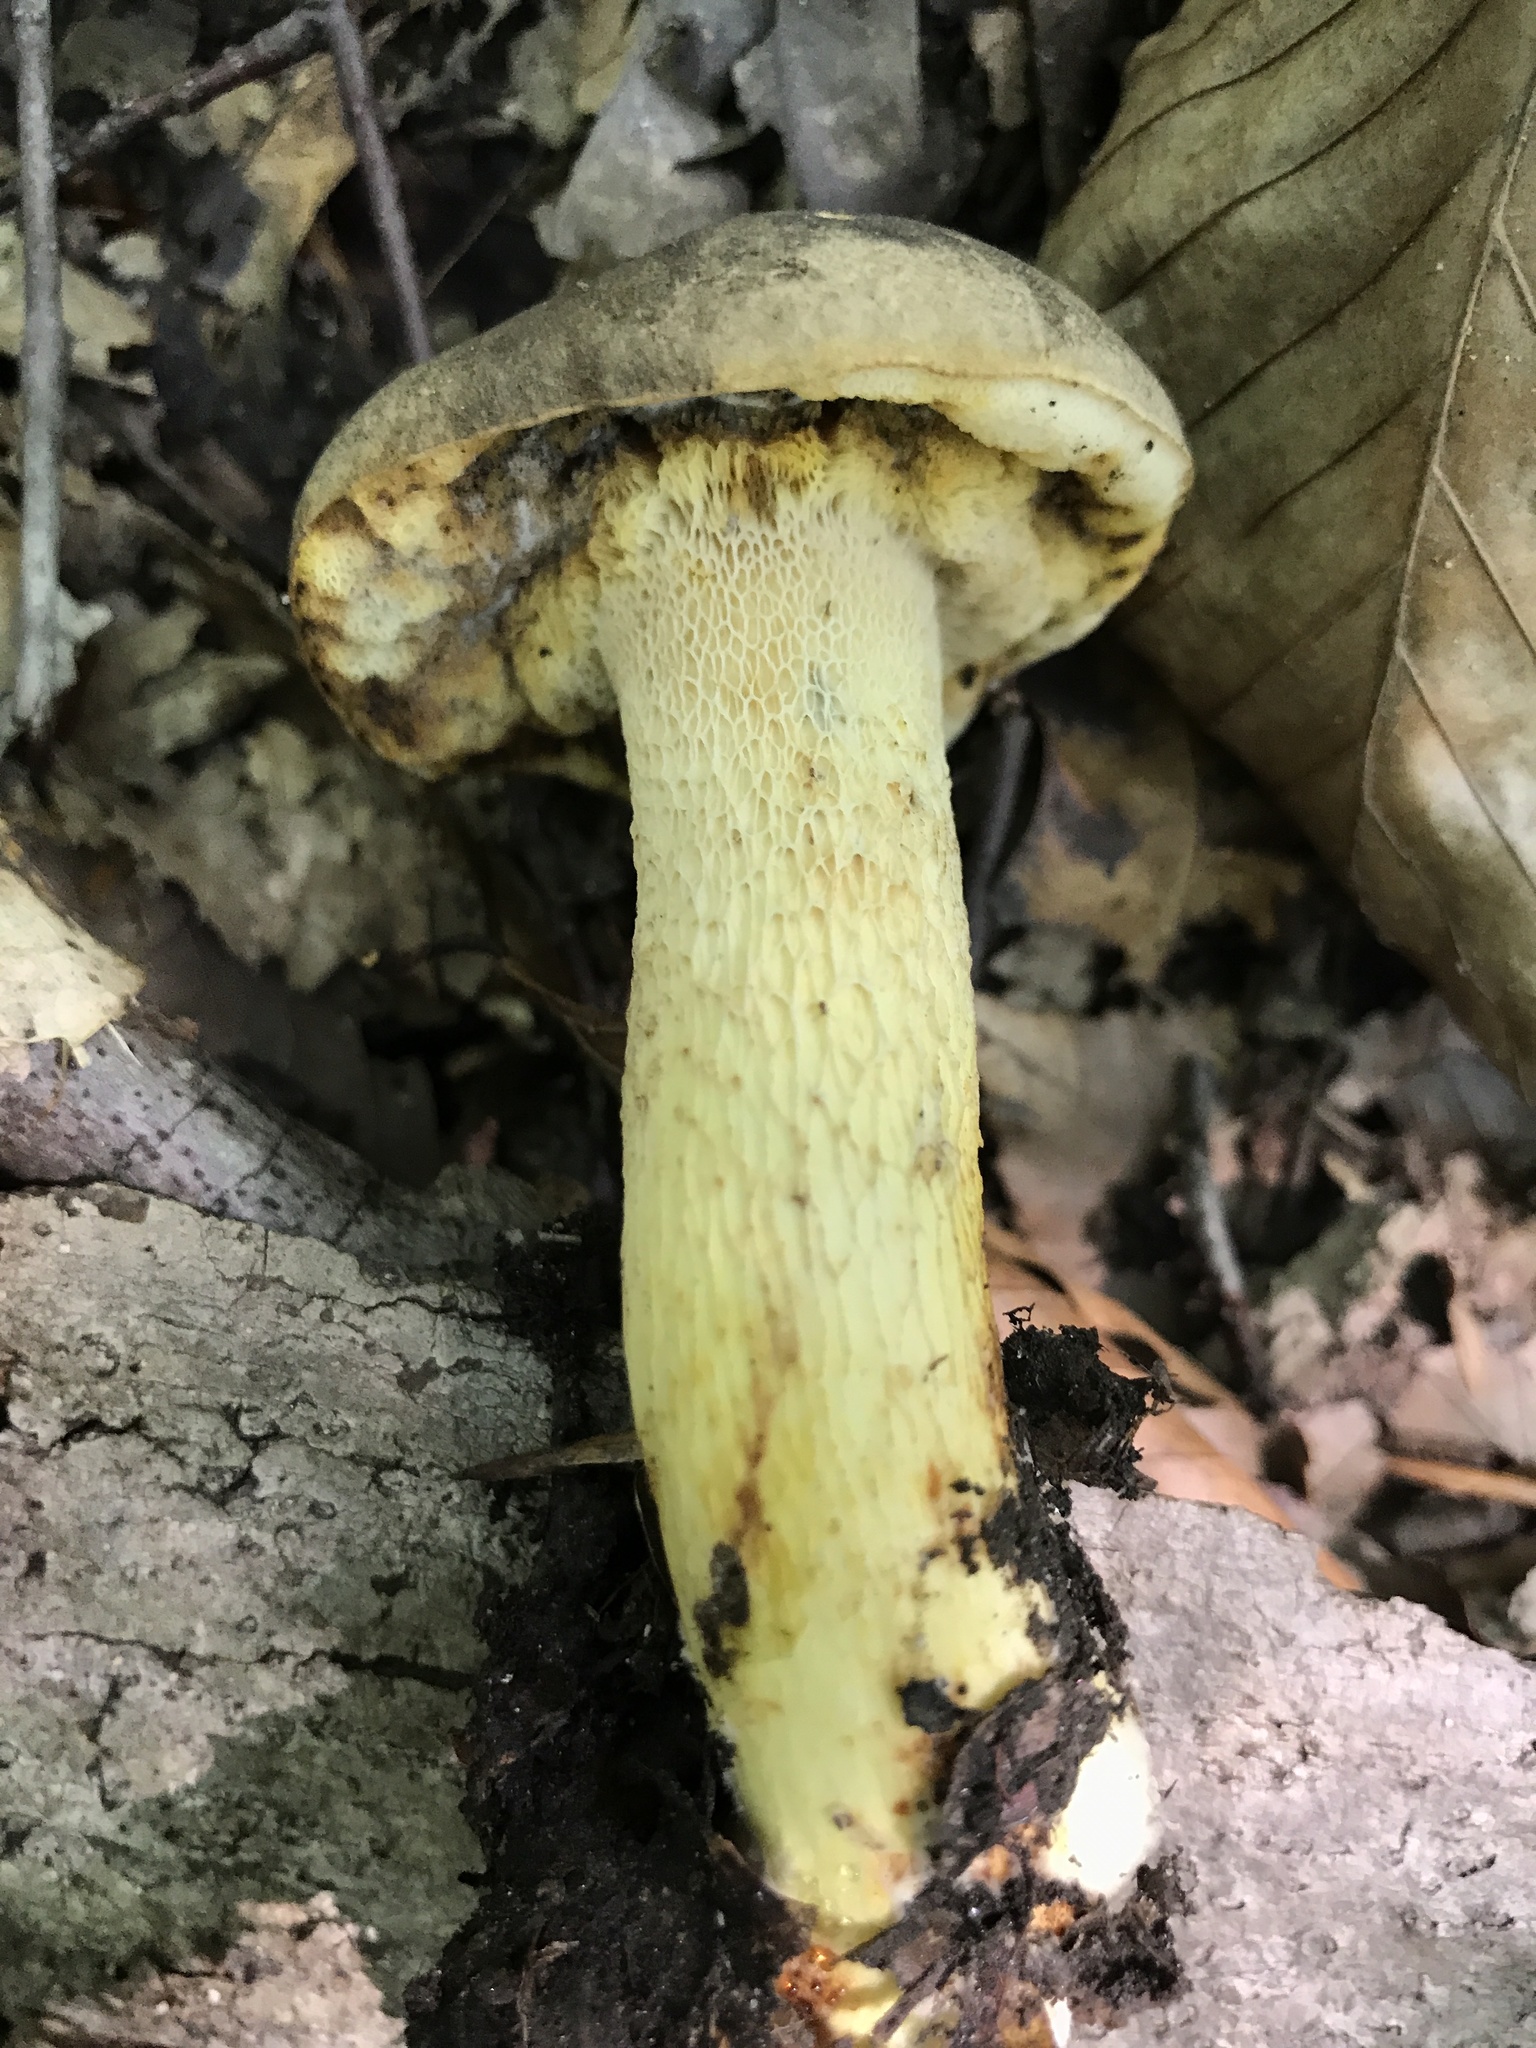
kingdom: Fungi
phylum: Basidiomycota
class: Agaricomycetes
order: Boletales
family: Boletaceae
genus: Retiboletus
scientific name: Retiboletus griseus
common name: Grey bolete
